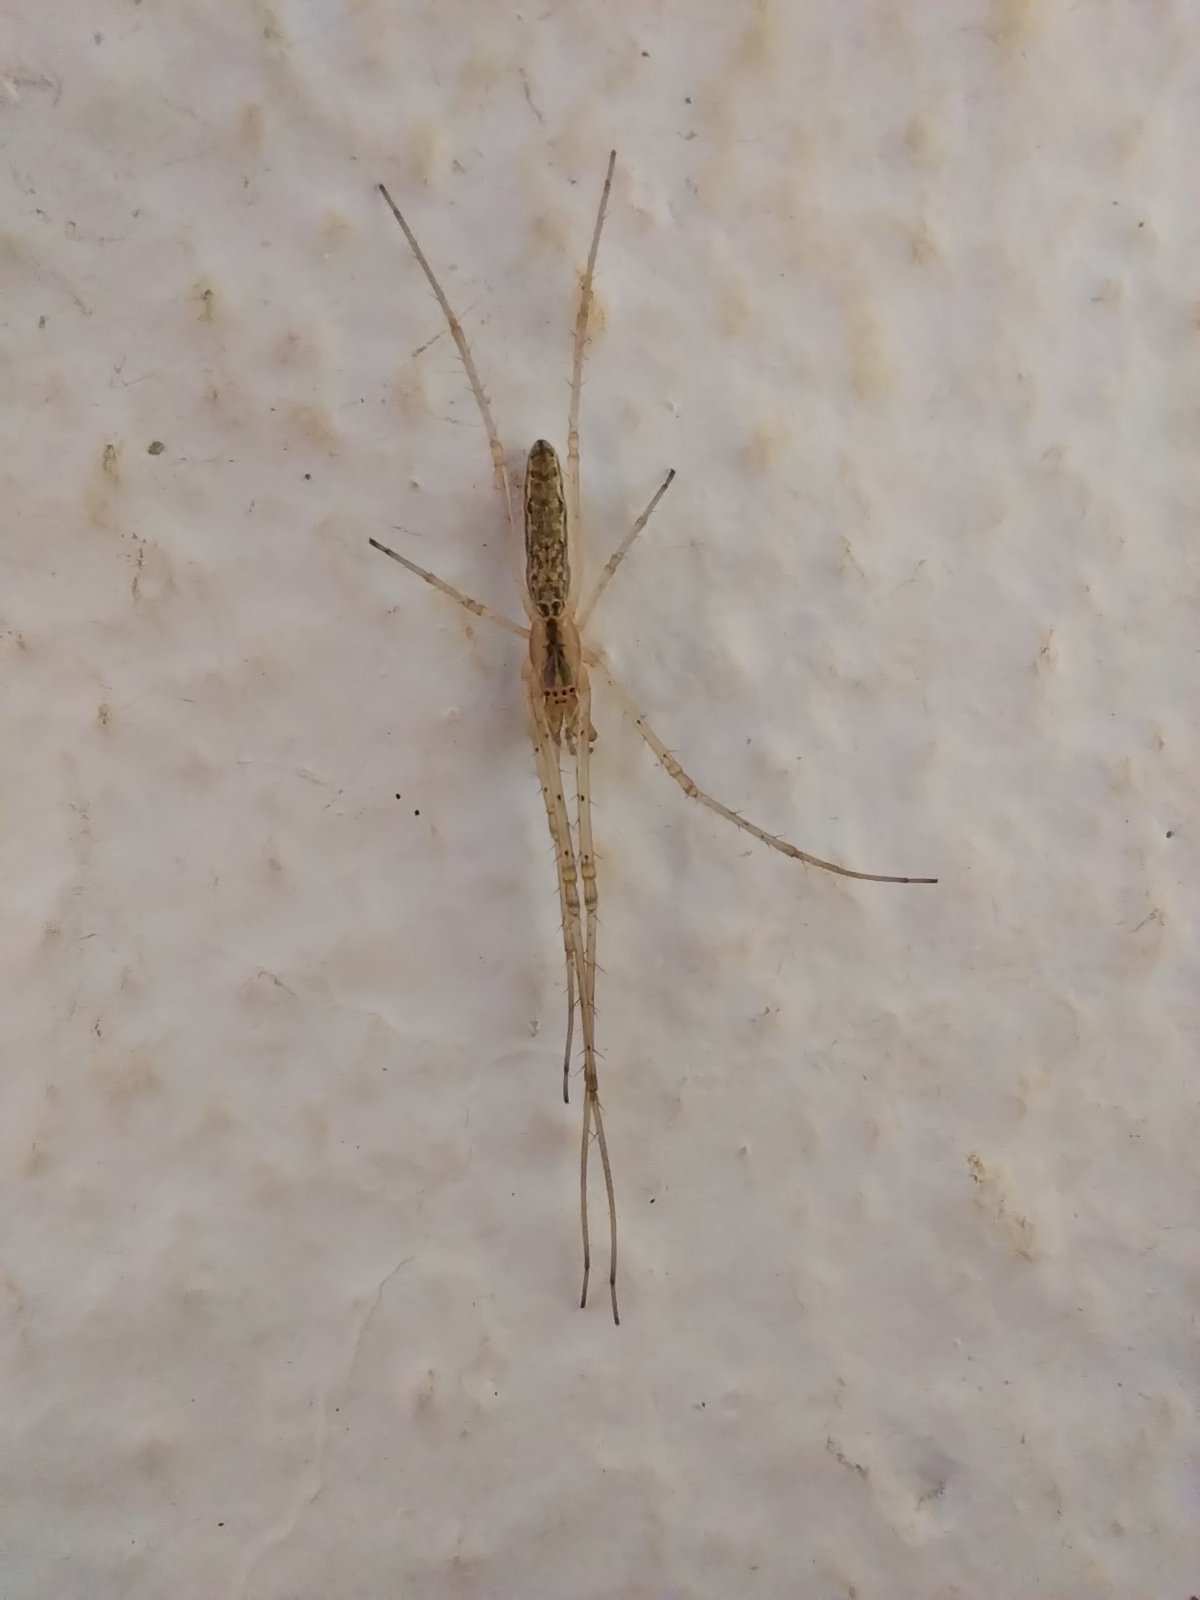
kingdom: Animalia
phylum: Arthropoda
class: Arachnida
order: Araneae
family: Tetragnathidae
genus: Tetragnatha
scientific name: Tetragnatha
